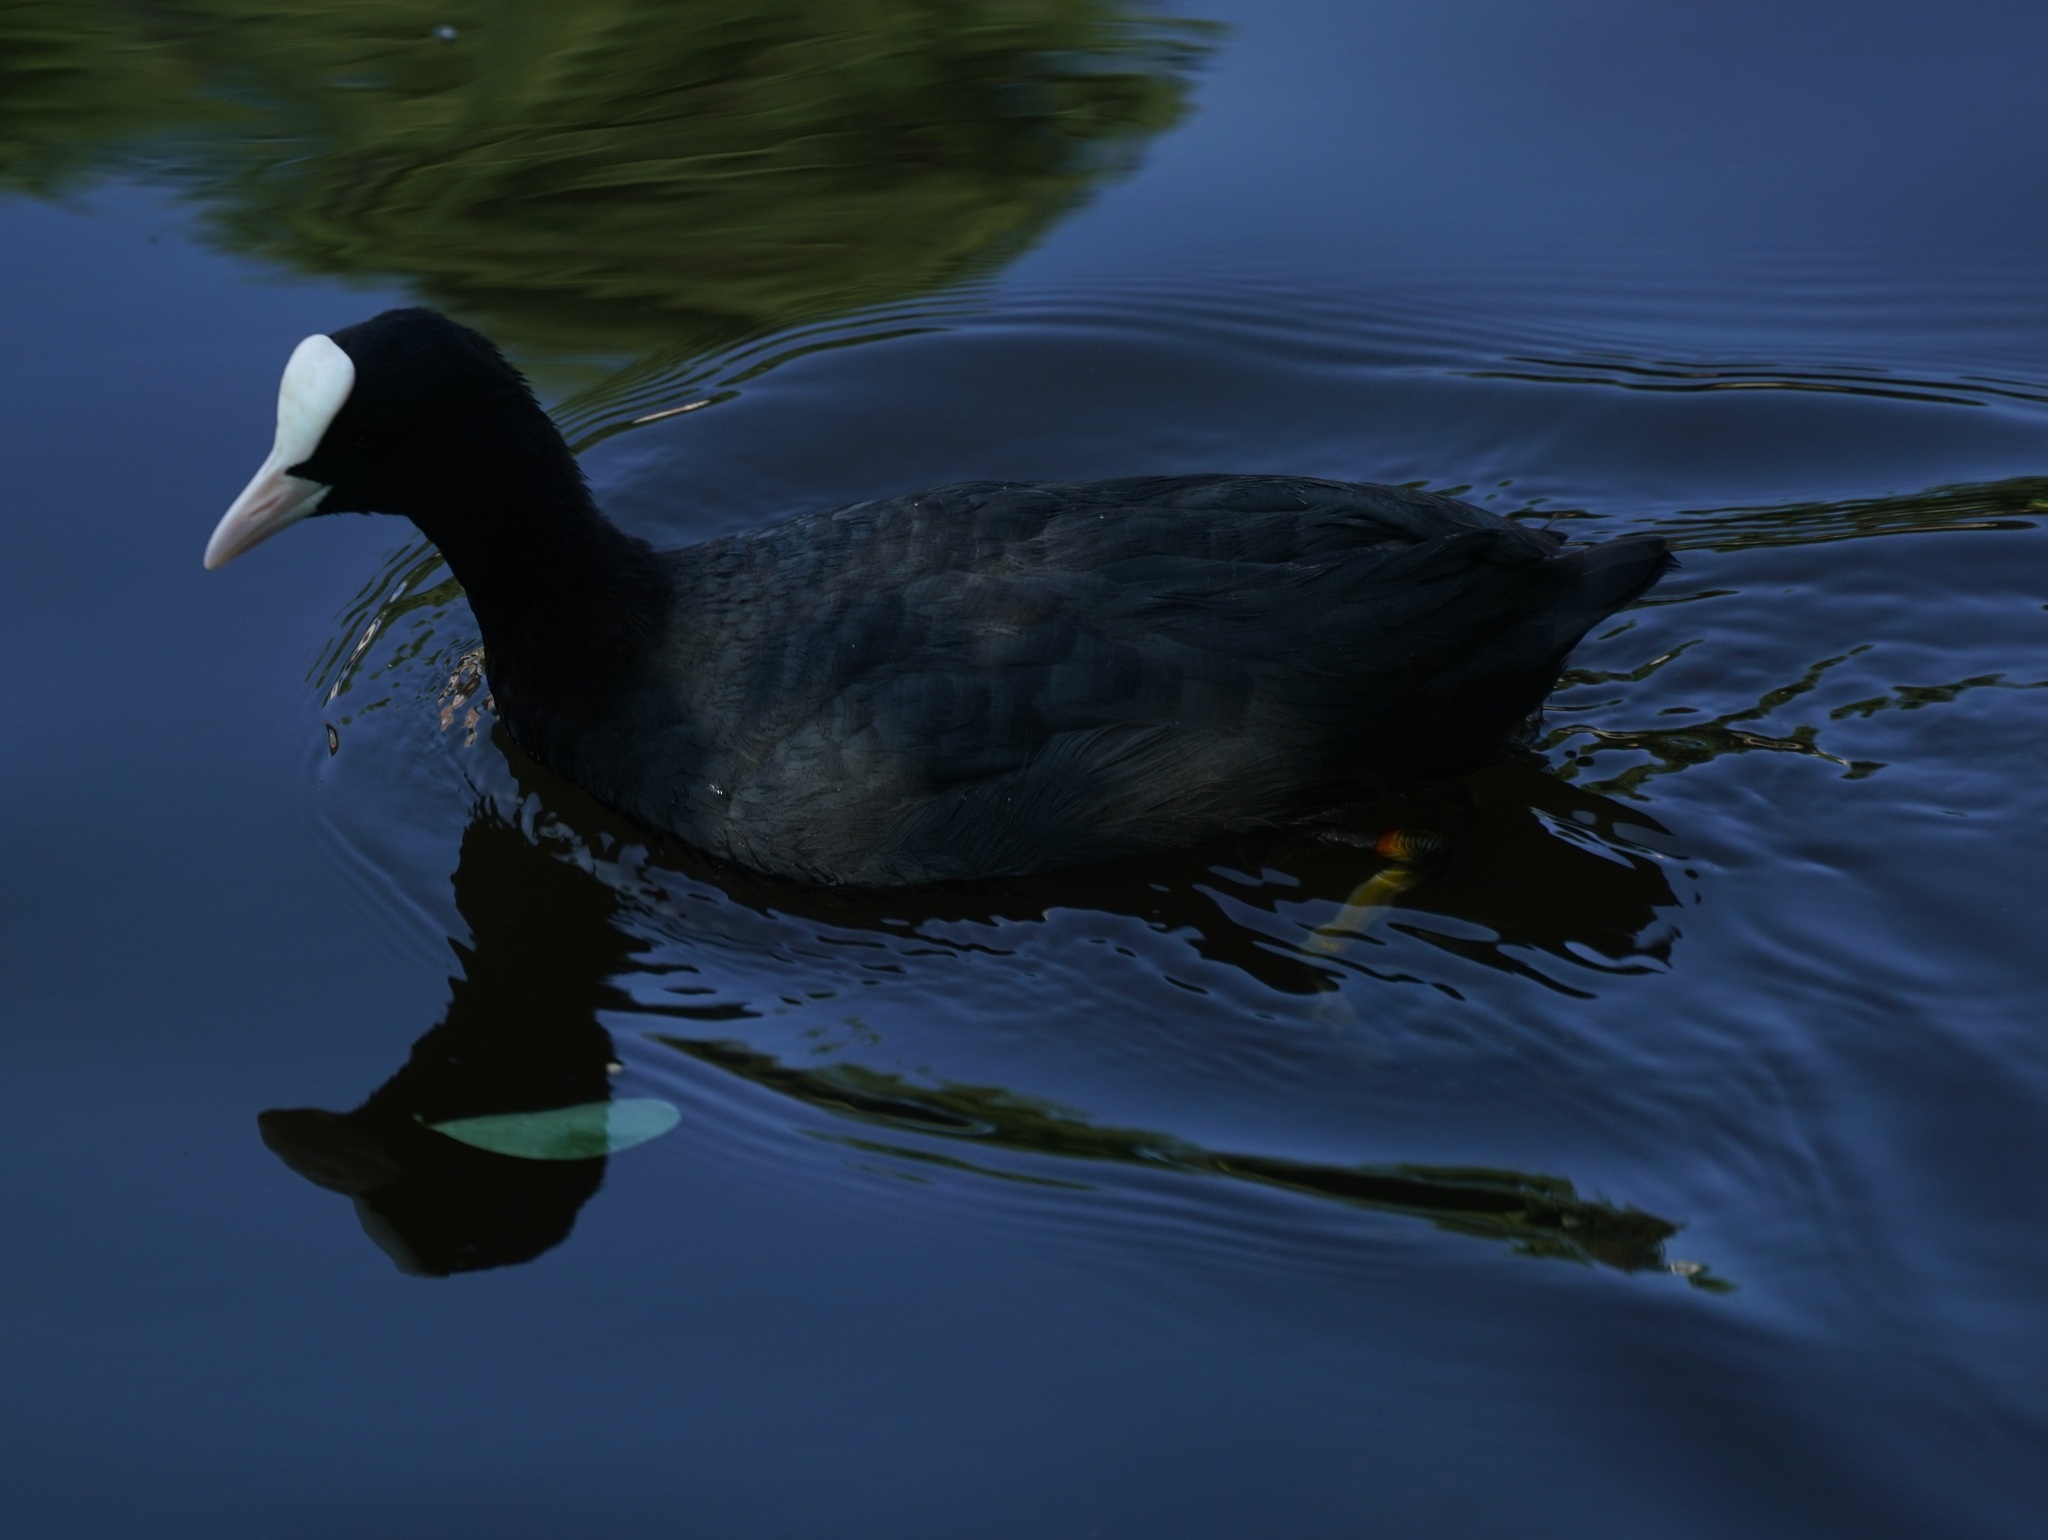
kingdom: Animalia
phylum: Chordata
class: Aves
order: Gruiformes
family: Rallidae
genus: Fulica
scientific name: Fulica atra
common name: Eurasian coot
